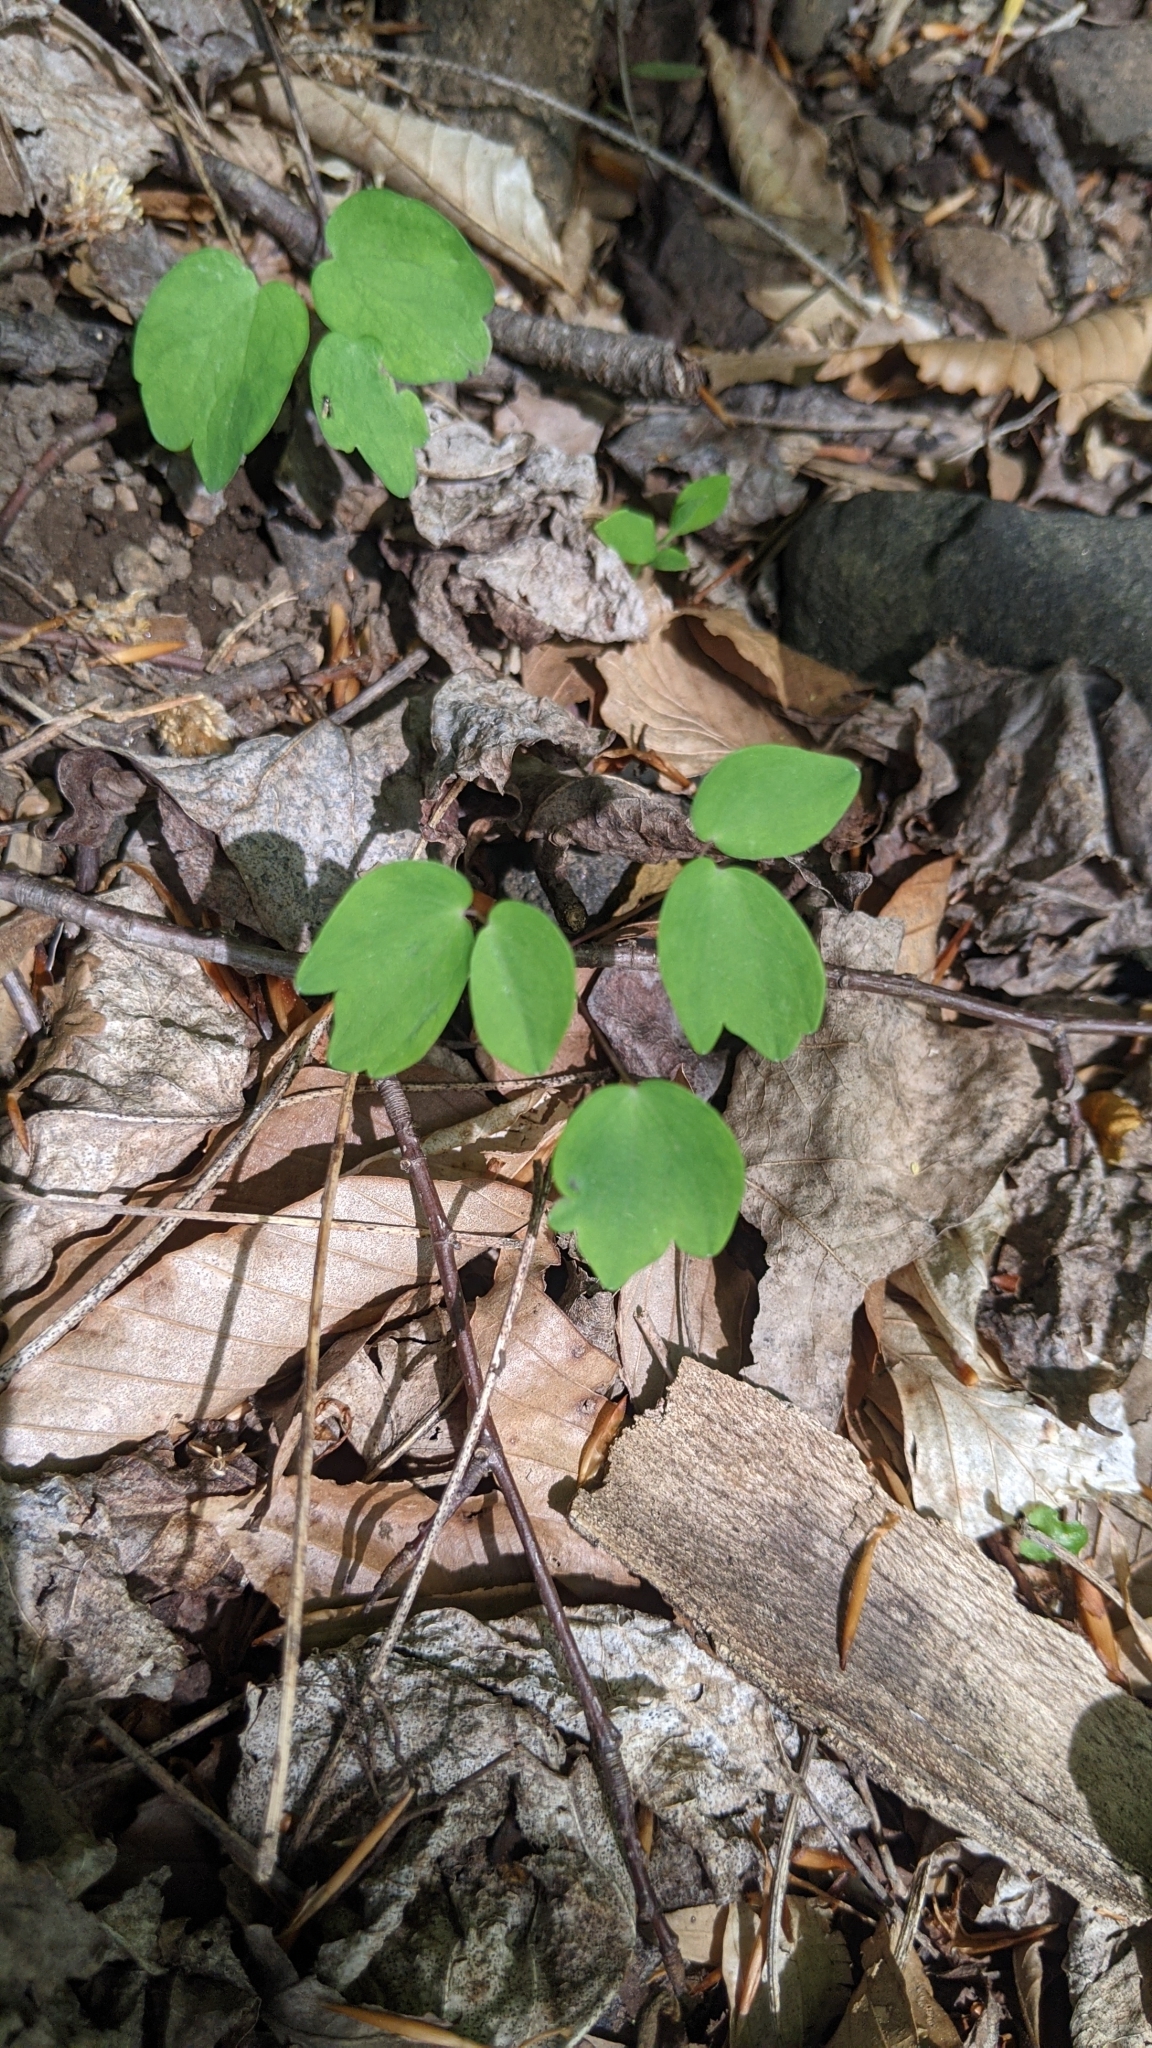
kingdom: Plantae
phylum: Tracheophyta
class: Magnoliopsida
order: Ranunculales
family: Ranunculaceae
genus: Thalictrum
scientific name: Thalictrum thalictroides
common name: Rue-anemone
